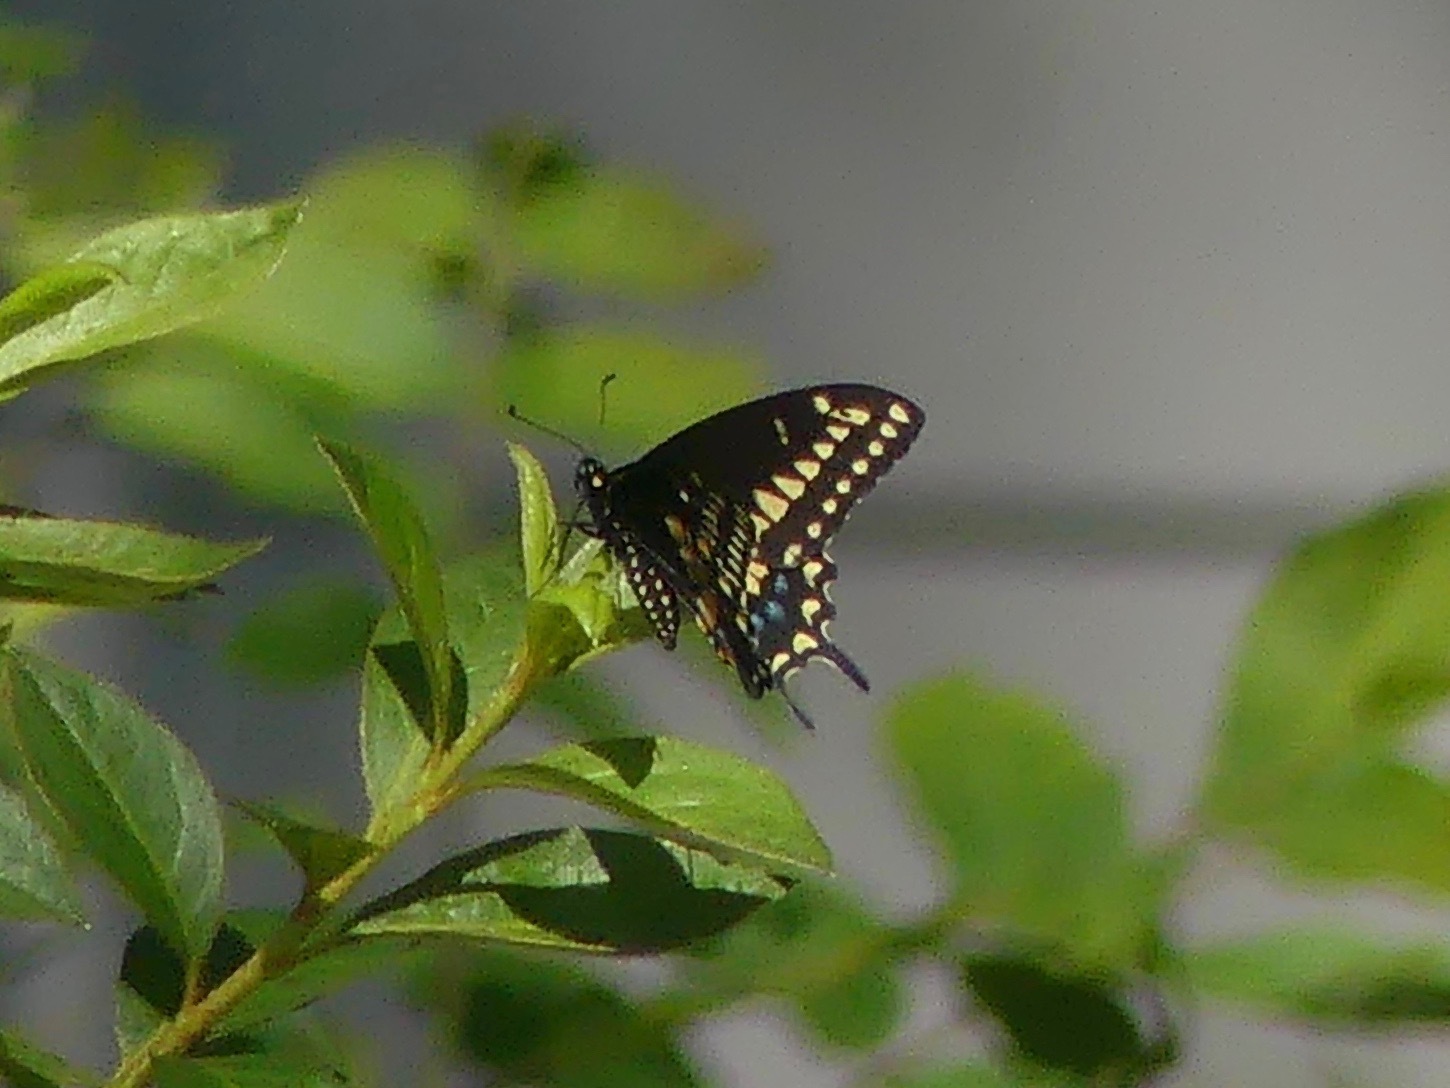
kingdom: Animalia
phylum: Arthropoda
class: Insecta
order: Lepidoptera
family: Papilionidae
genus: Papilio
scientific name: Papilio polyxenes
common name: Black swallowtail
